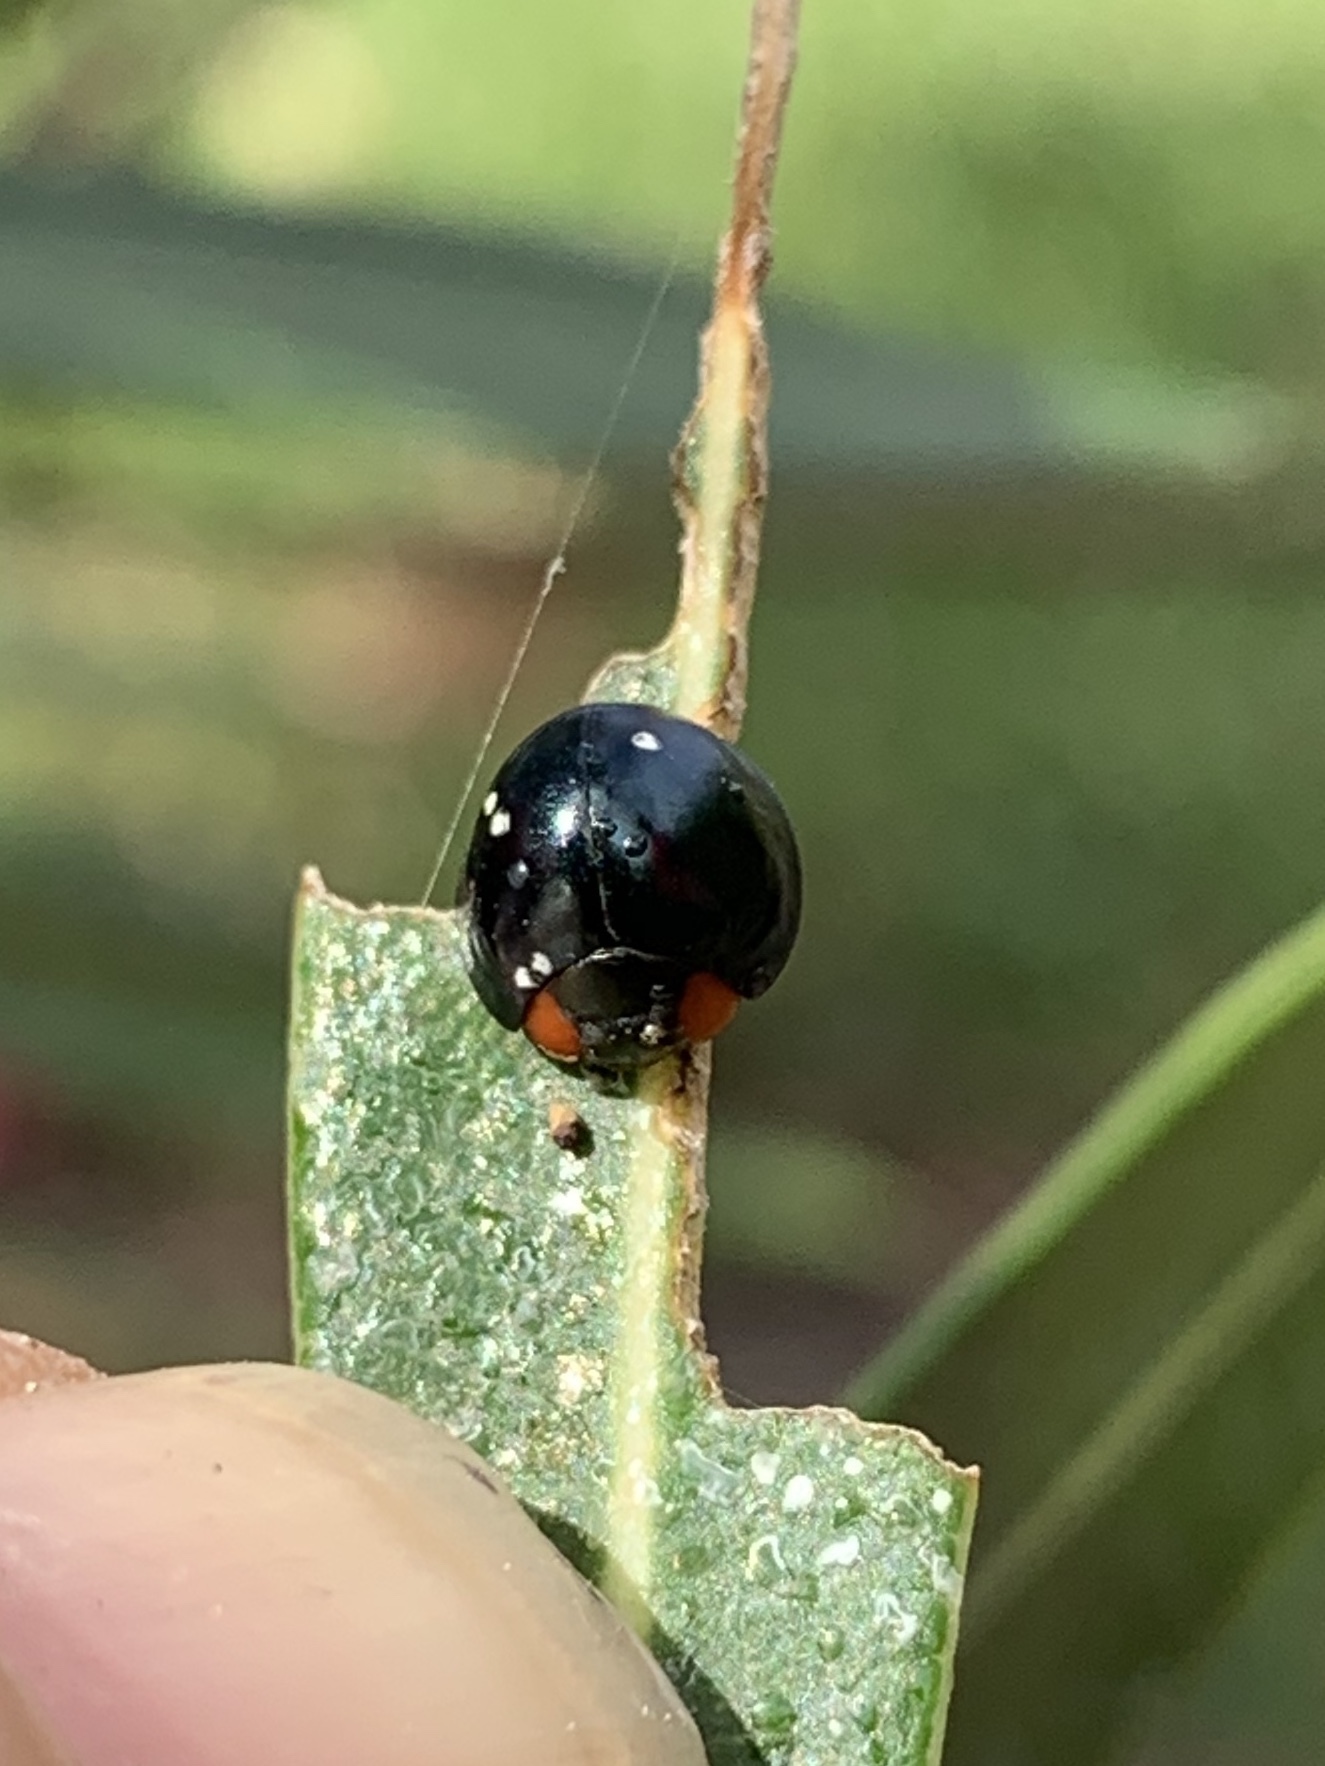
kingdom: Animalia
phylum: Arthropoda
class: Insecta
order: Coleoptera
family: Coccinellidae
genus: Curinus
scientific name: Curinus coeruleus
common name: Ladybird beetle
